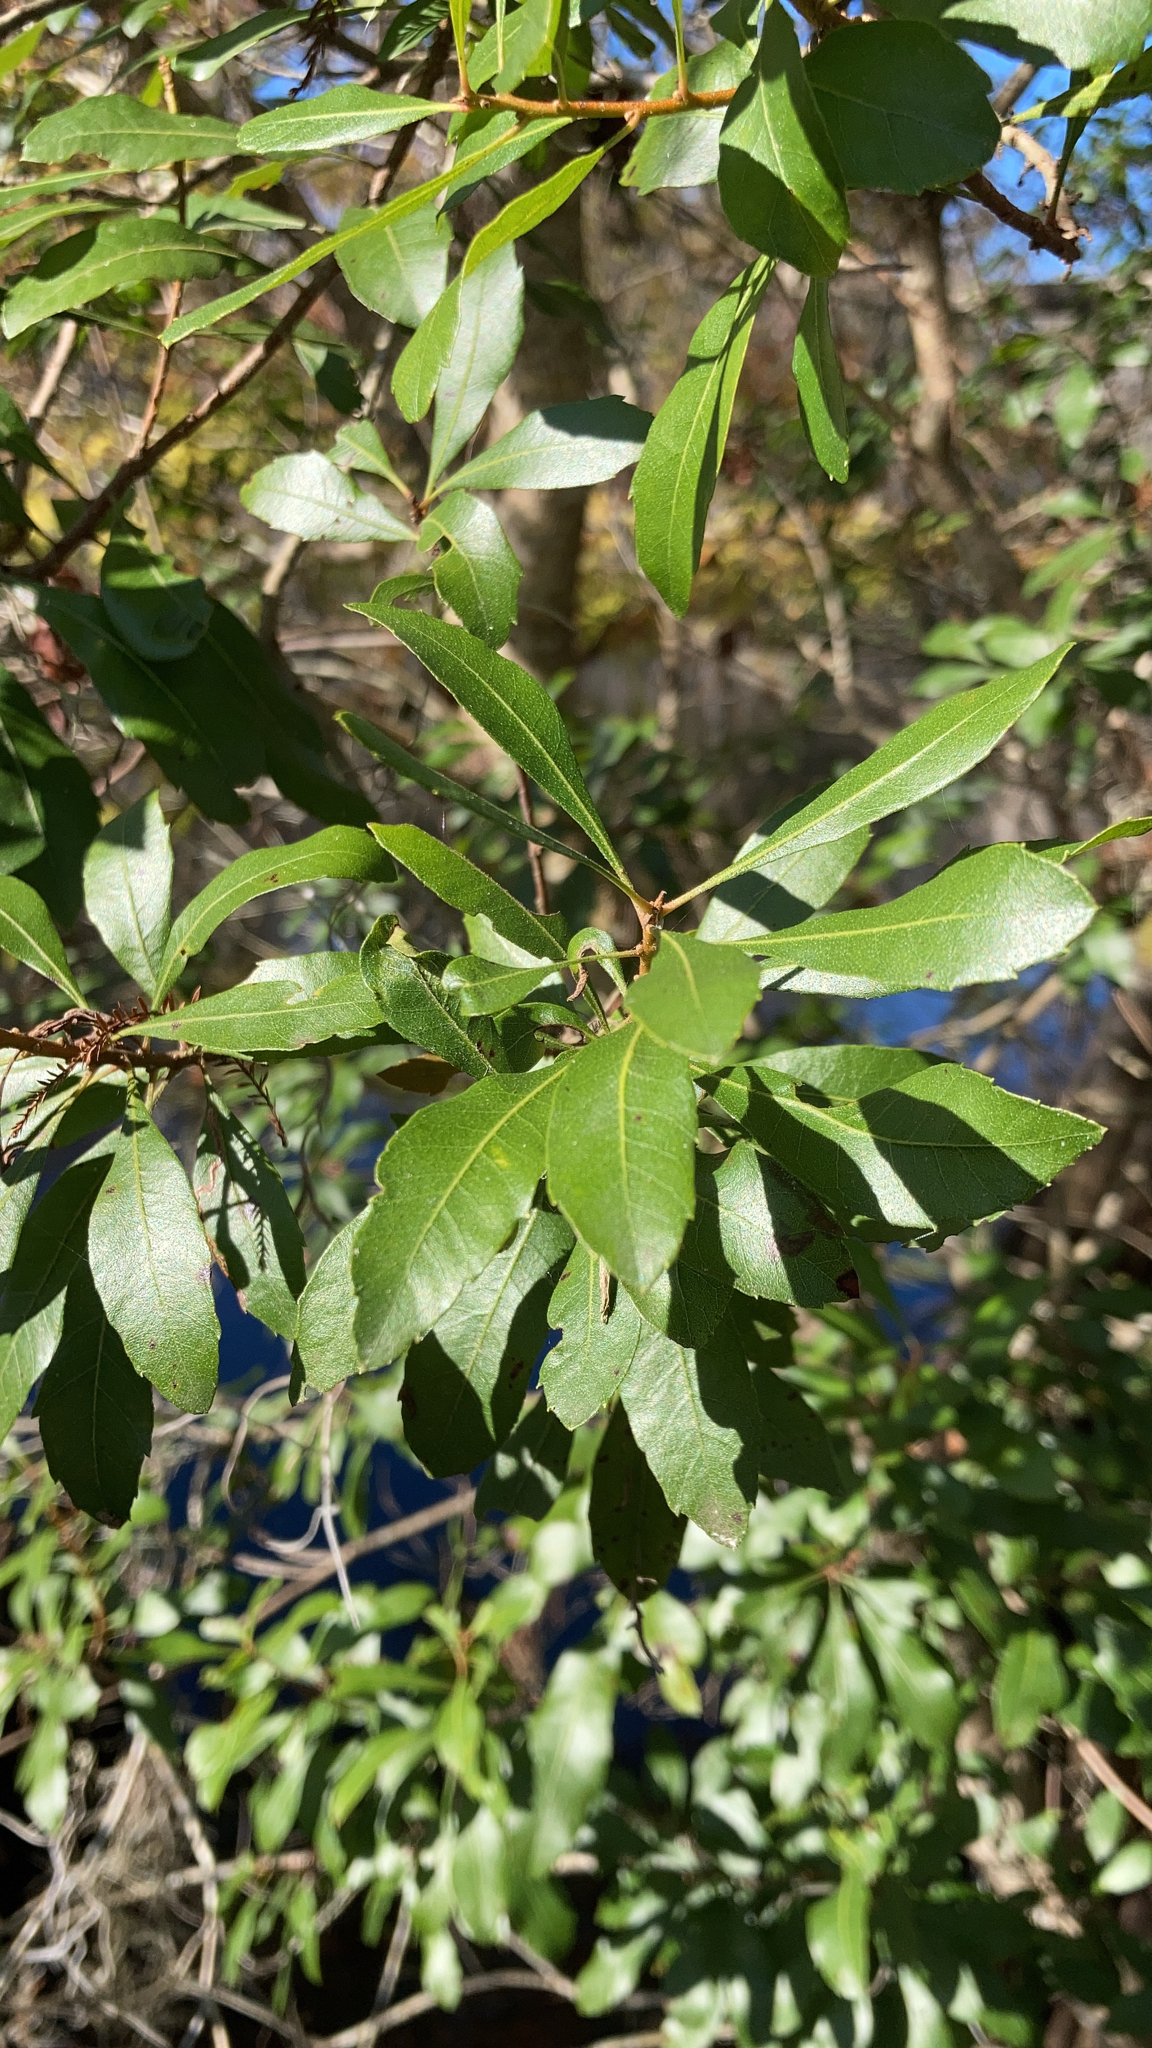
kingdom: Plantae
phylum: Tracheophyta
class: Magnoliopsida
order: Fagales
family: Myricaceae
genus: Morella
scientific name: Morella cerifera
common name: Wax myrtle
